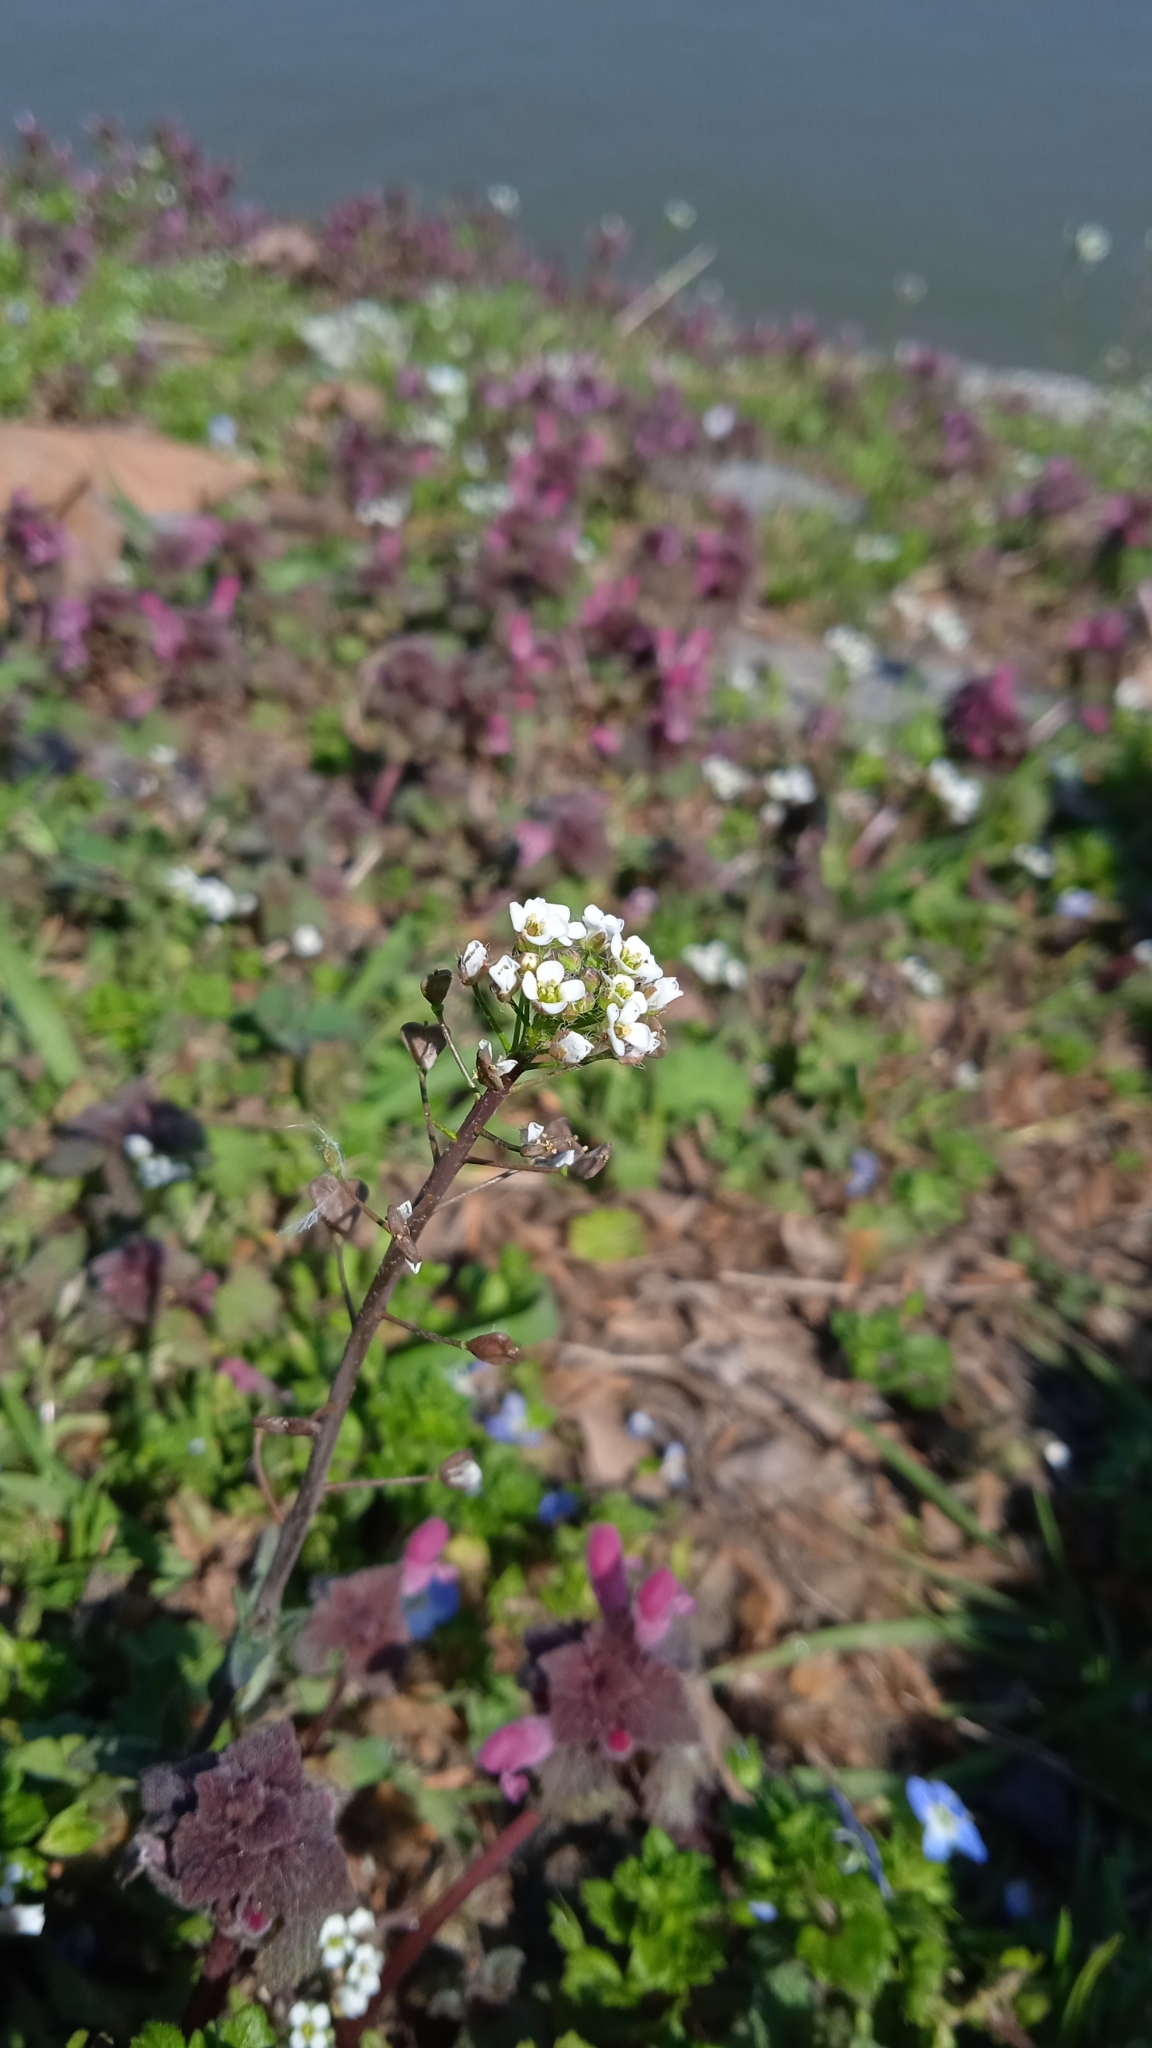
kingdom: Plantae
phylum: Tracheophyta
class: Magnoliopsida
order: Brassicales
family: Brassicaceae
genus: Capsella
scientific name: Capsella bursa-pastoris
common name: Shepherd's purse
